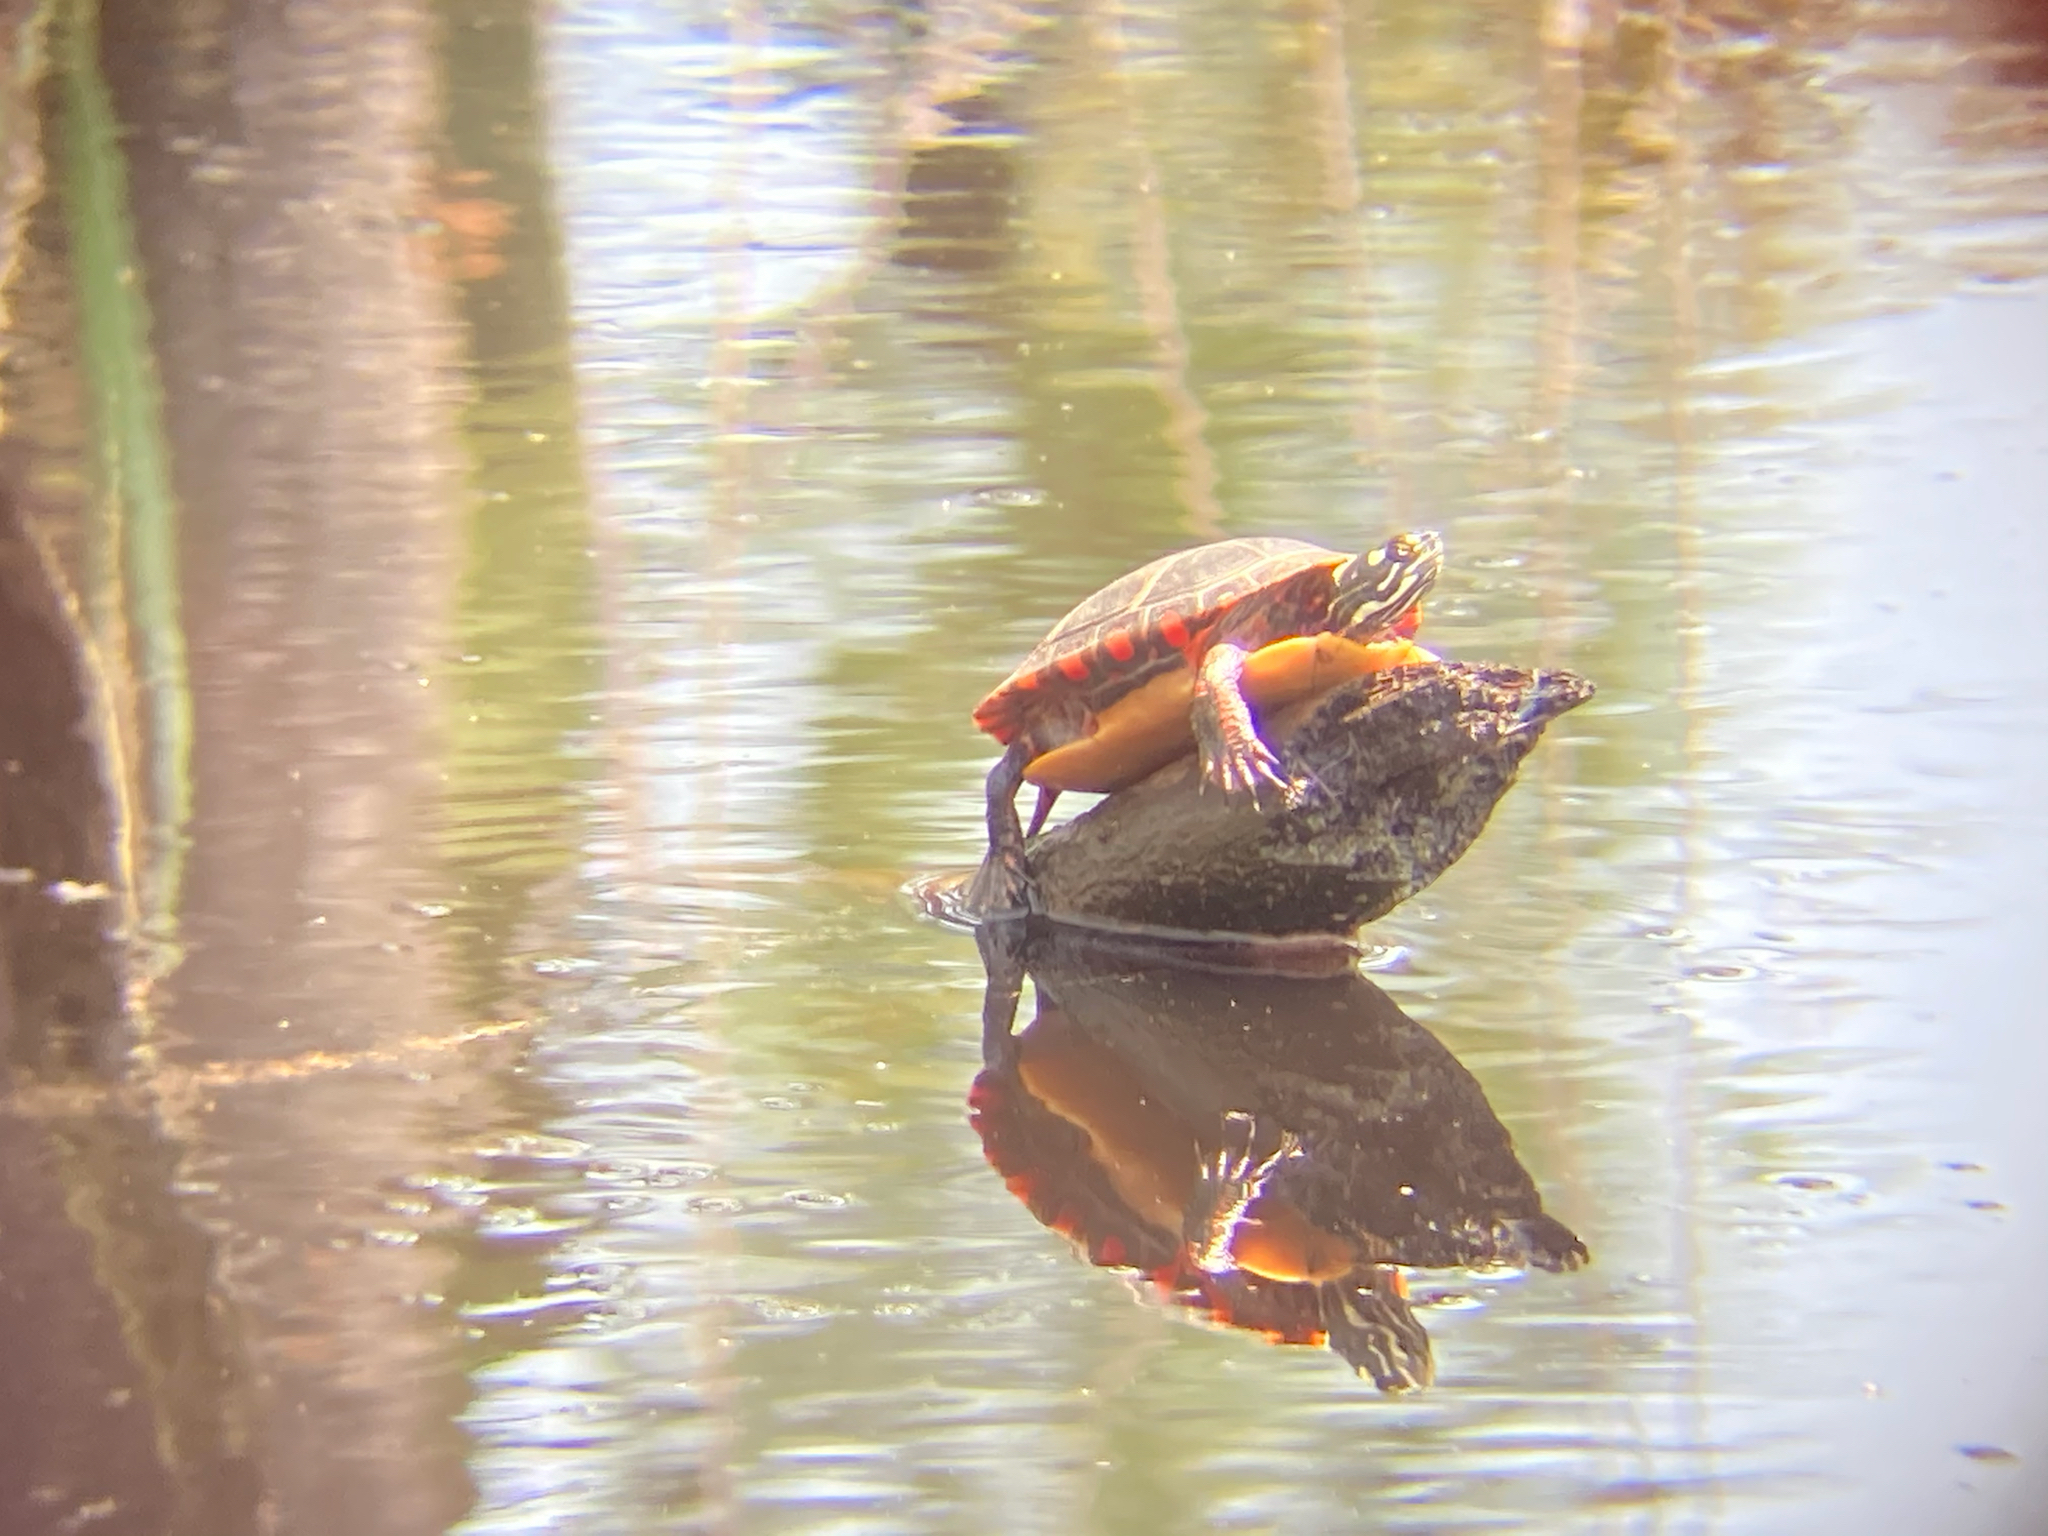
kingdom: Animalia
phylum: Chordata
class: Testudines
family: Emydidae
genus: Chrysemys
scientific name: Chrysemys picta
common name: Painted turtle
